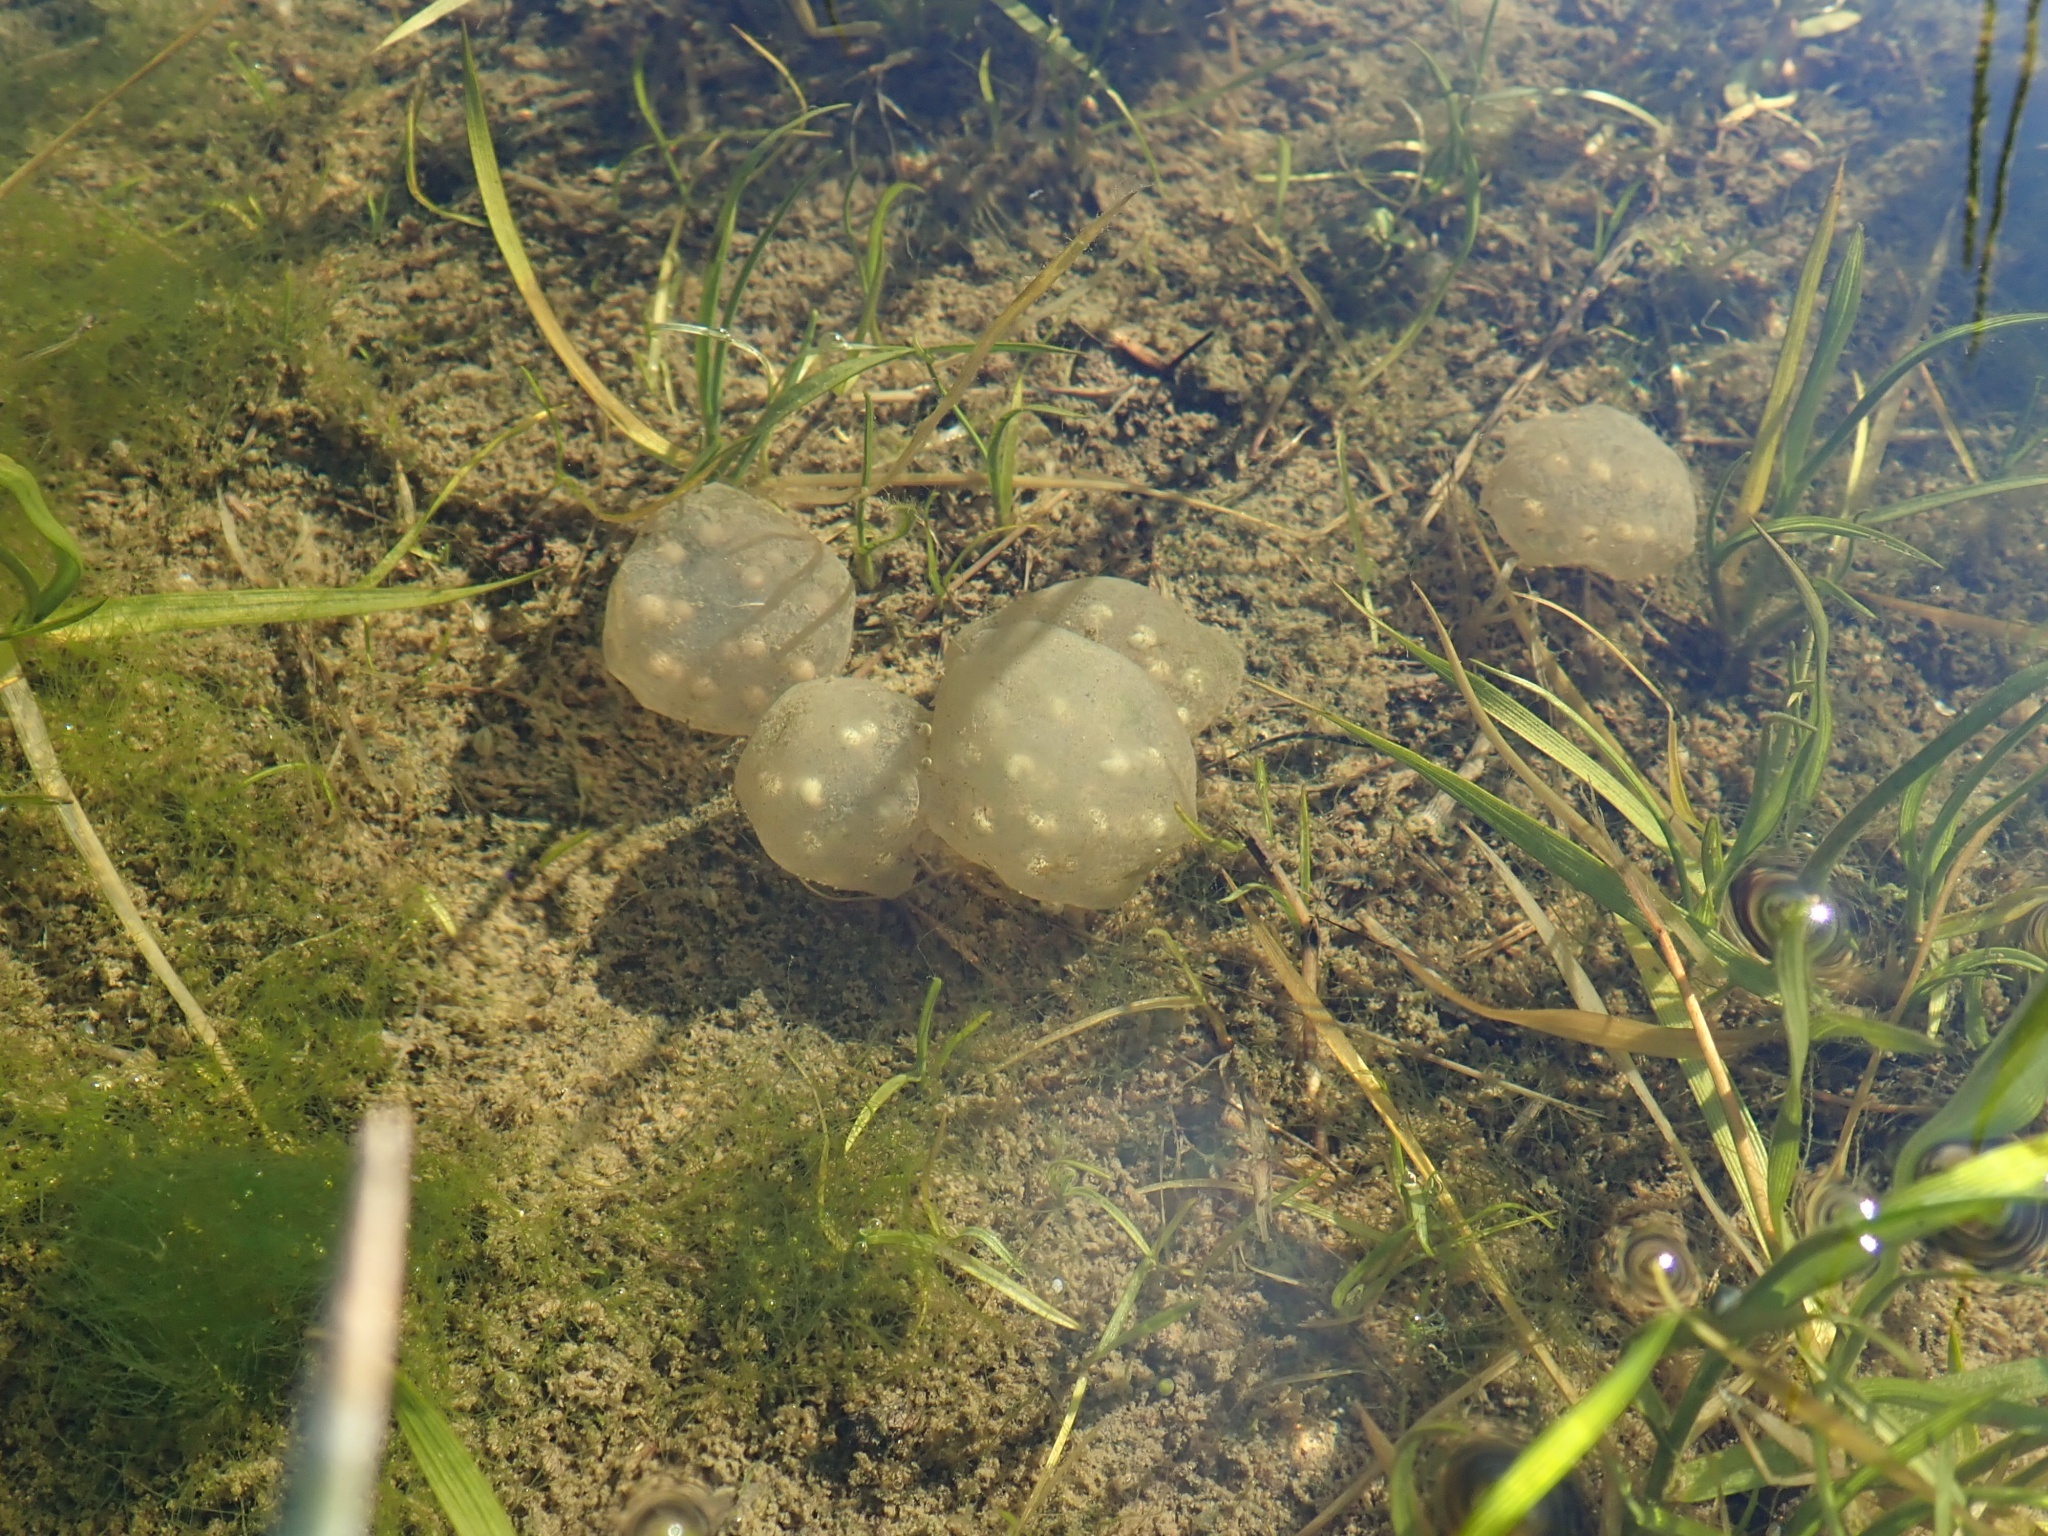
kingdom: Animalia
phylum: Chordata
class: Amphibia
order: Caudata
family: Salamandridae
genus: Taricha
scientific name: Taricha torosa
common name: California newt
